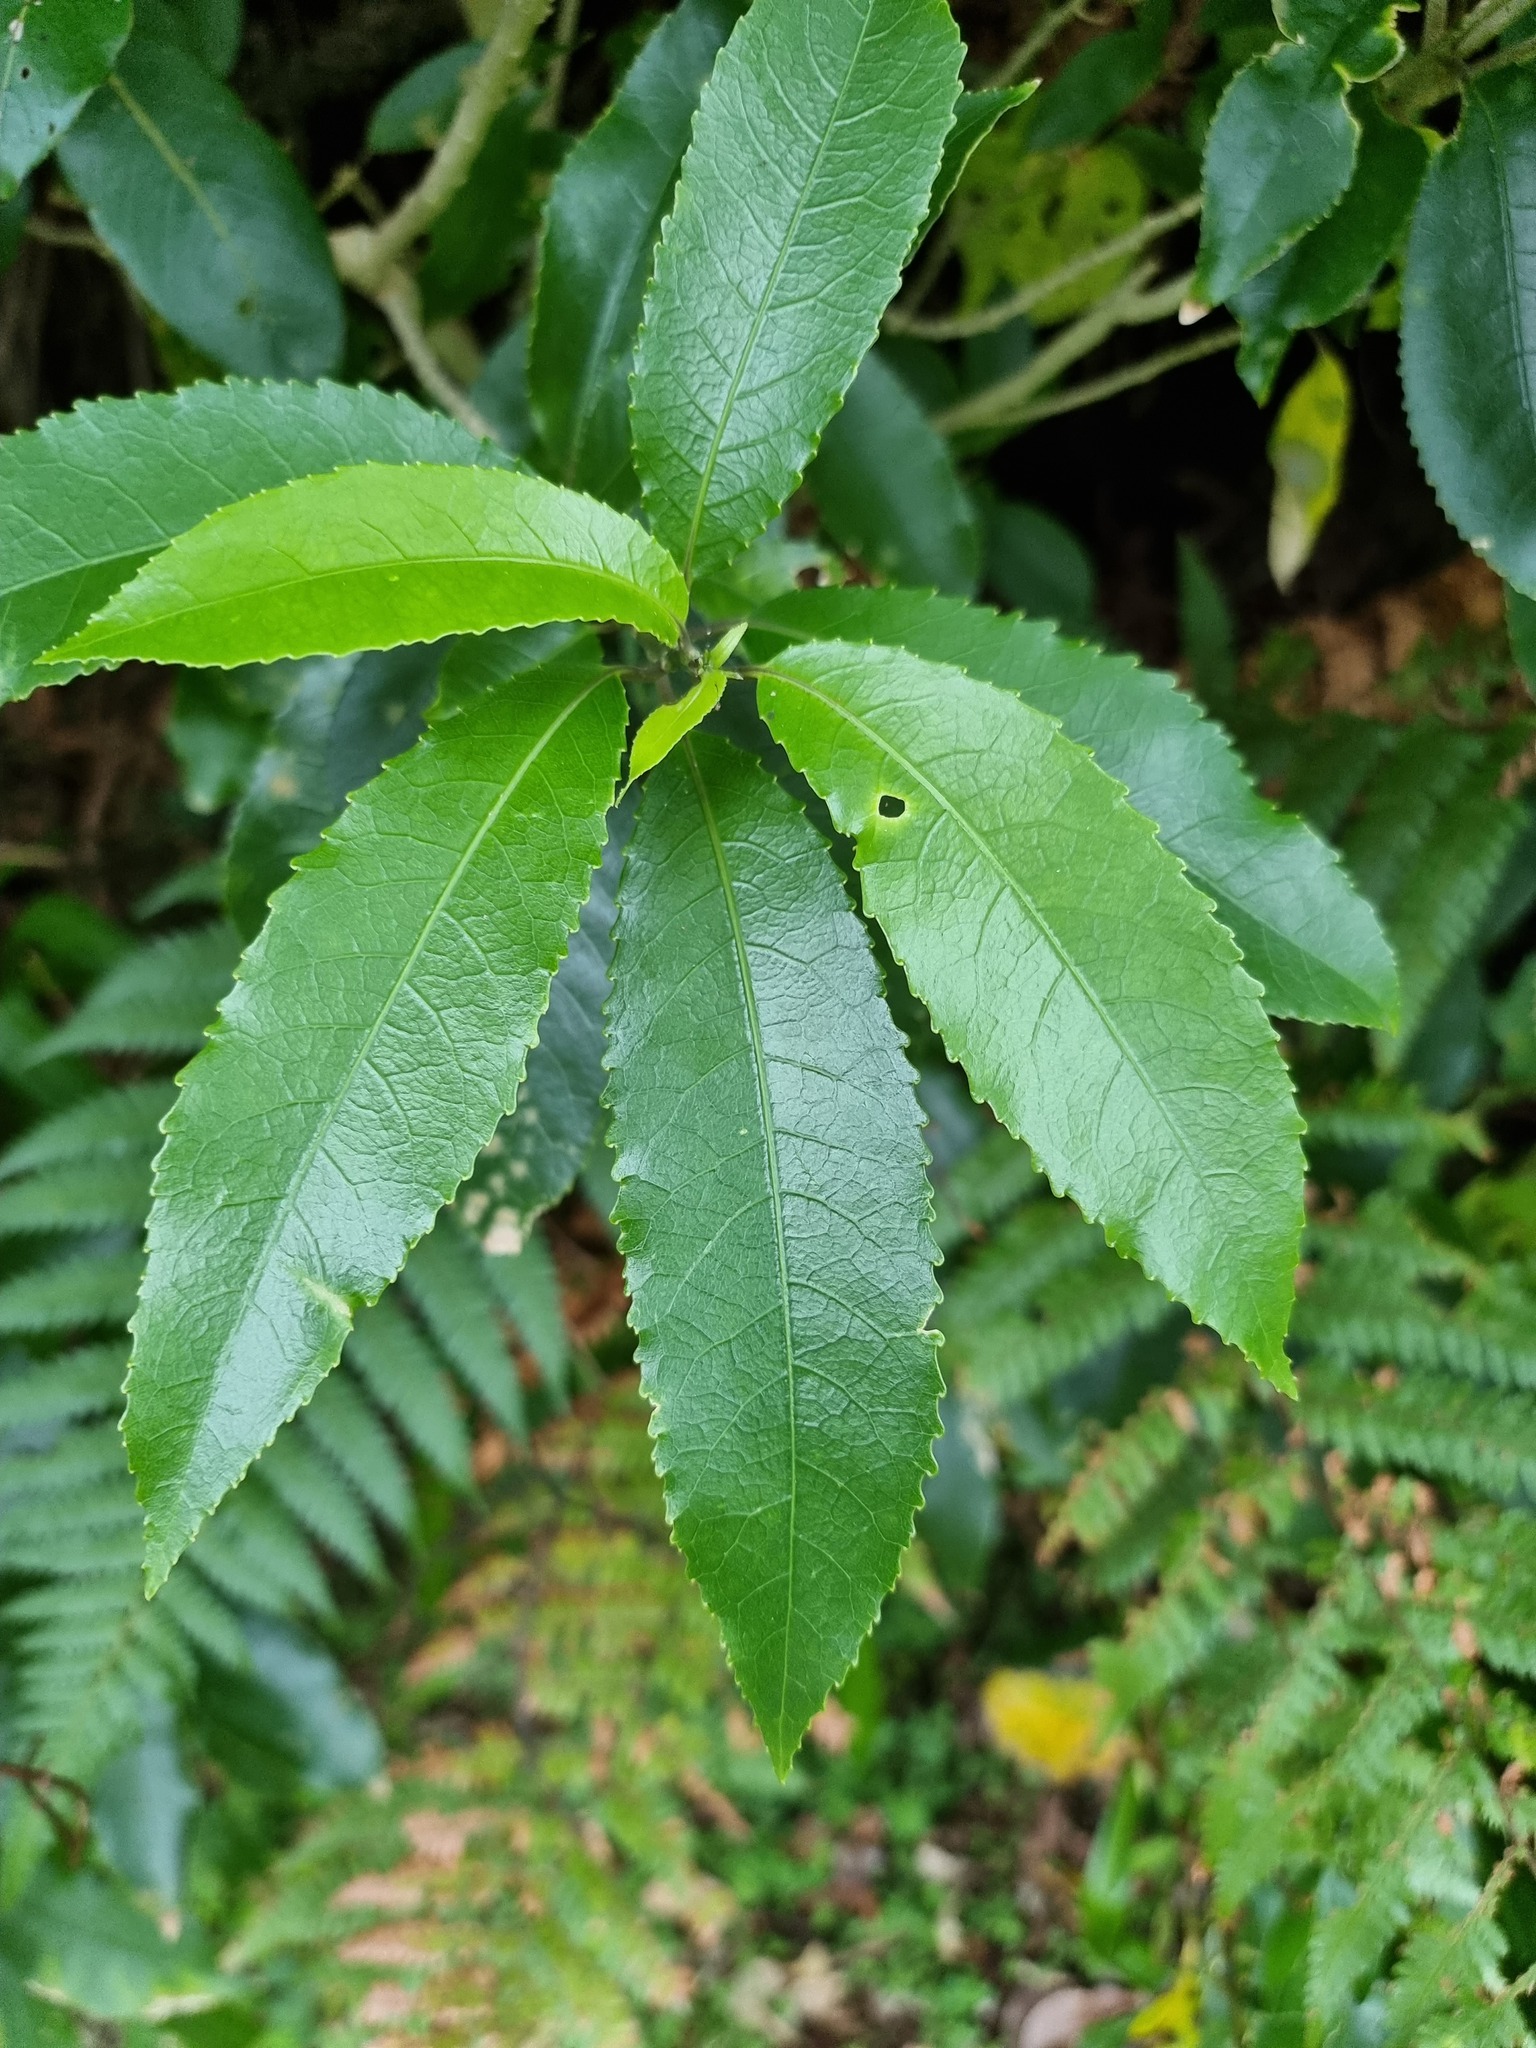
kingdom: Plantae
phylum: Tracheophyta
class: Magnoliopsida
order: Malpighiales
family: Violaceae
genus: Melicytus
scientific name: Melicytus ramiflorus
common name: Mahoe
